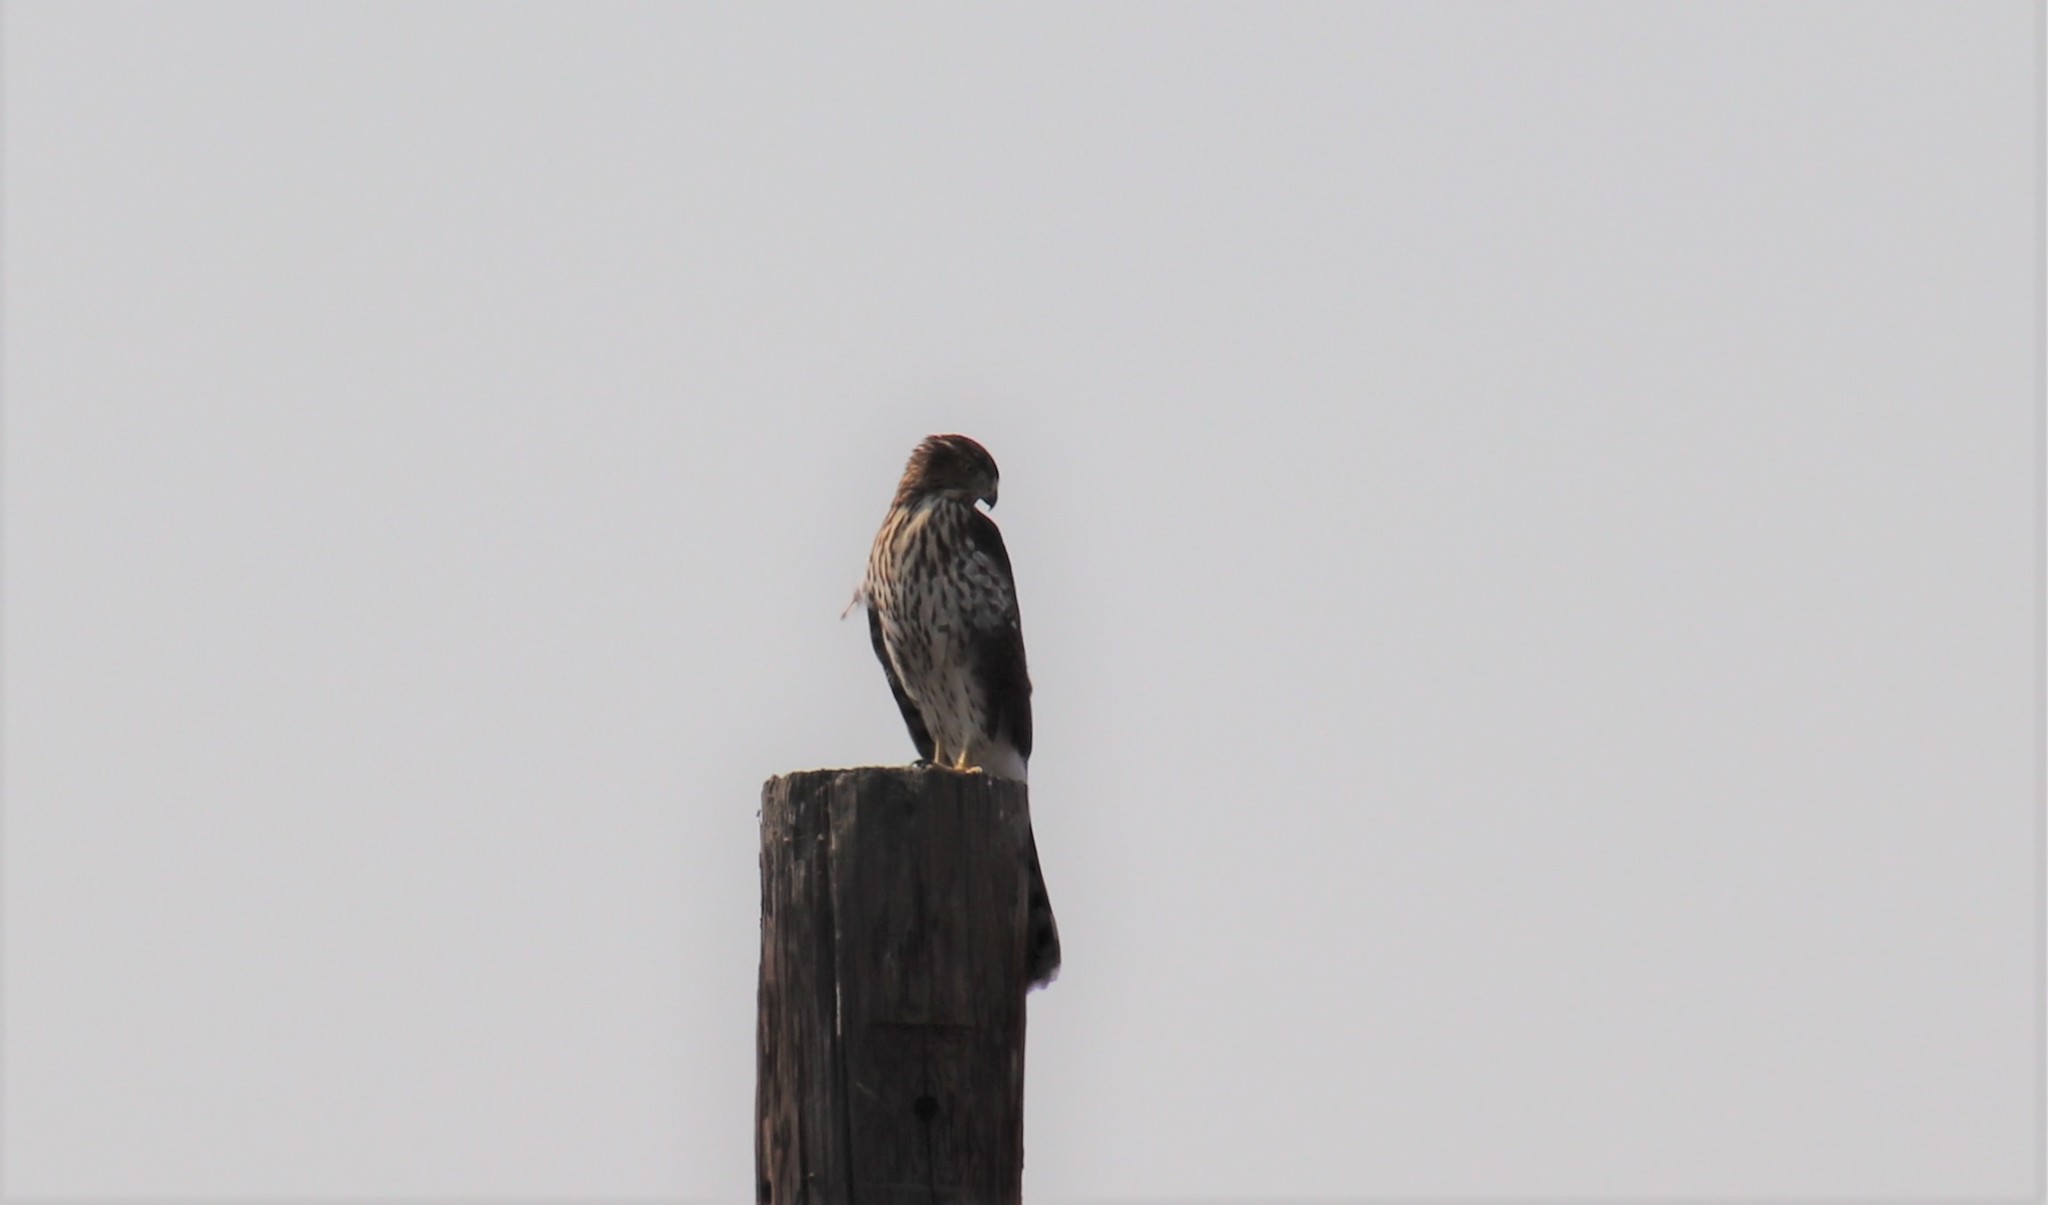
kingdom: Animalia
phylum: Chordata
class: Aves
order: Accipitriformes
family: Accipitridae
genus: Accipiter
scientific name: Accipiter cooperii
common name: Cooper's hawk
